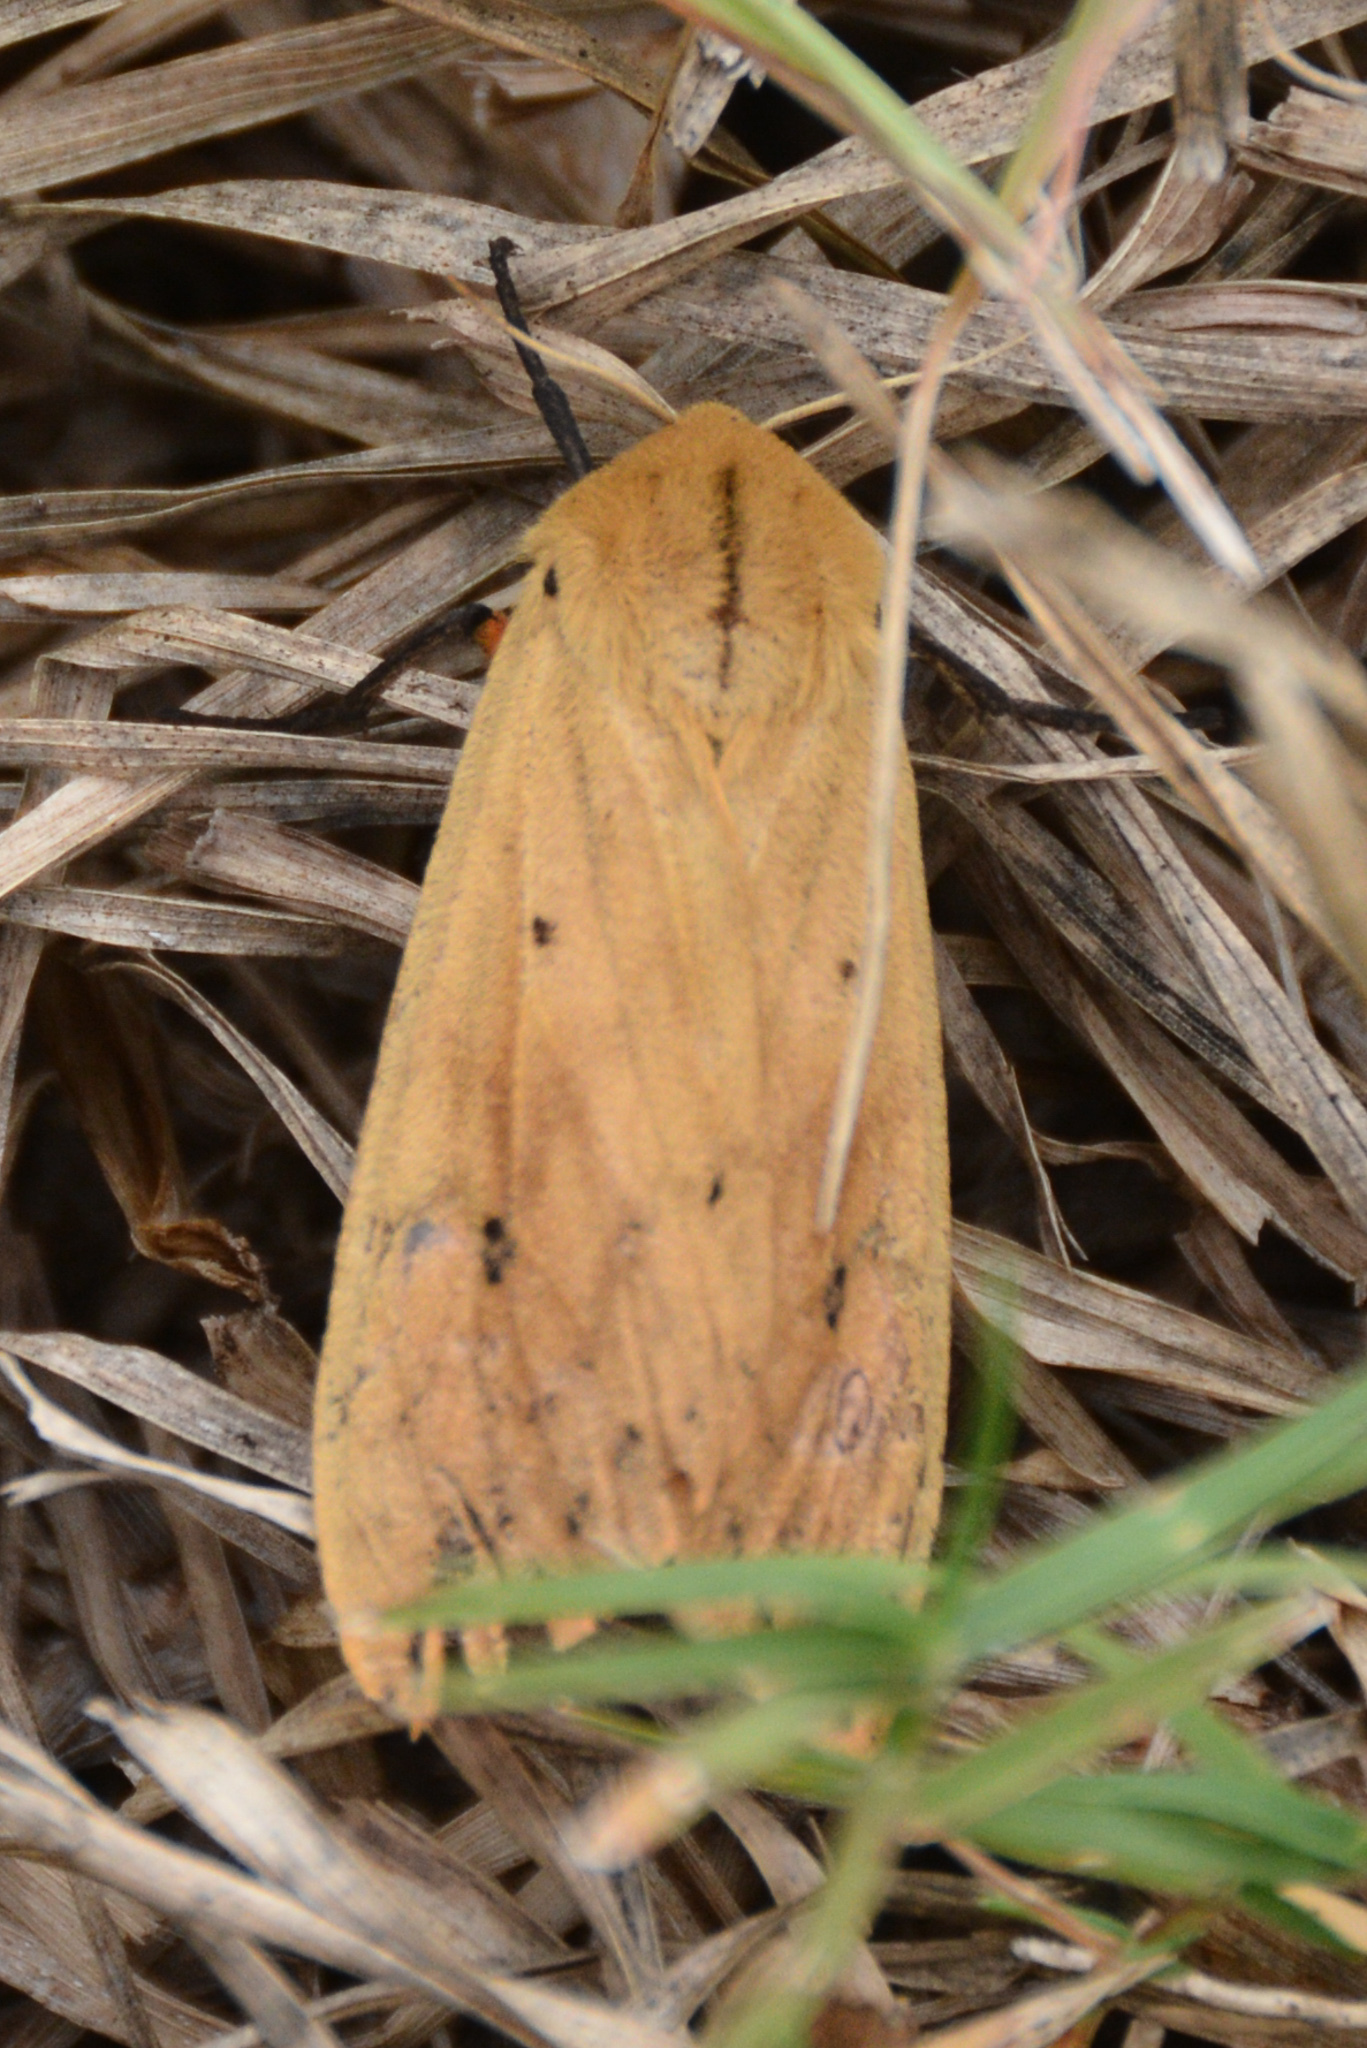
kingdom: Animalia
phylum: Arthropoda
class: Insecta
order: Lepidoptera
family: Erebidae
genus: Pyrrharctia
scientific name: Pyrrharctia isabella
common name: Isabella tiger moth
